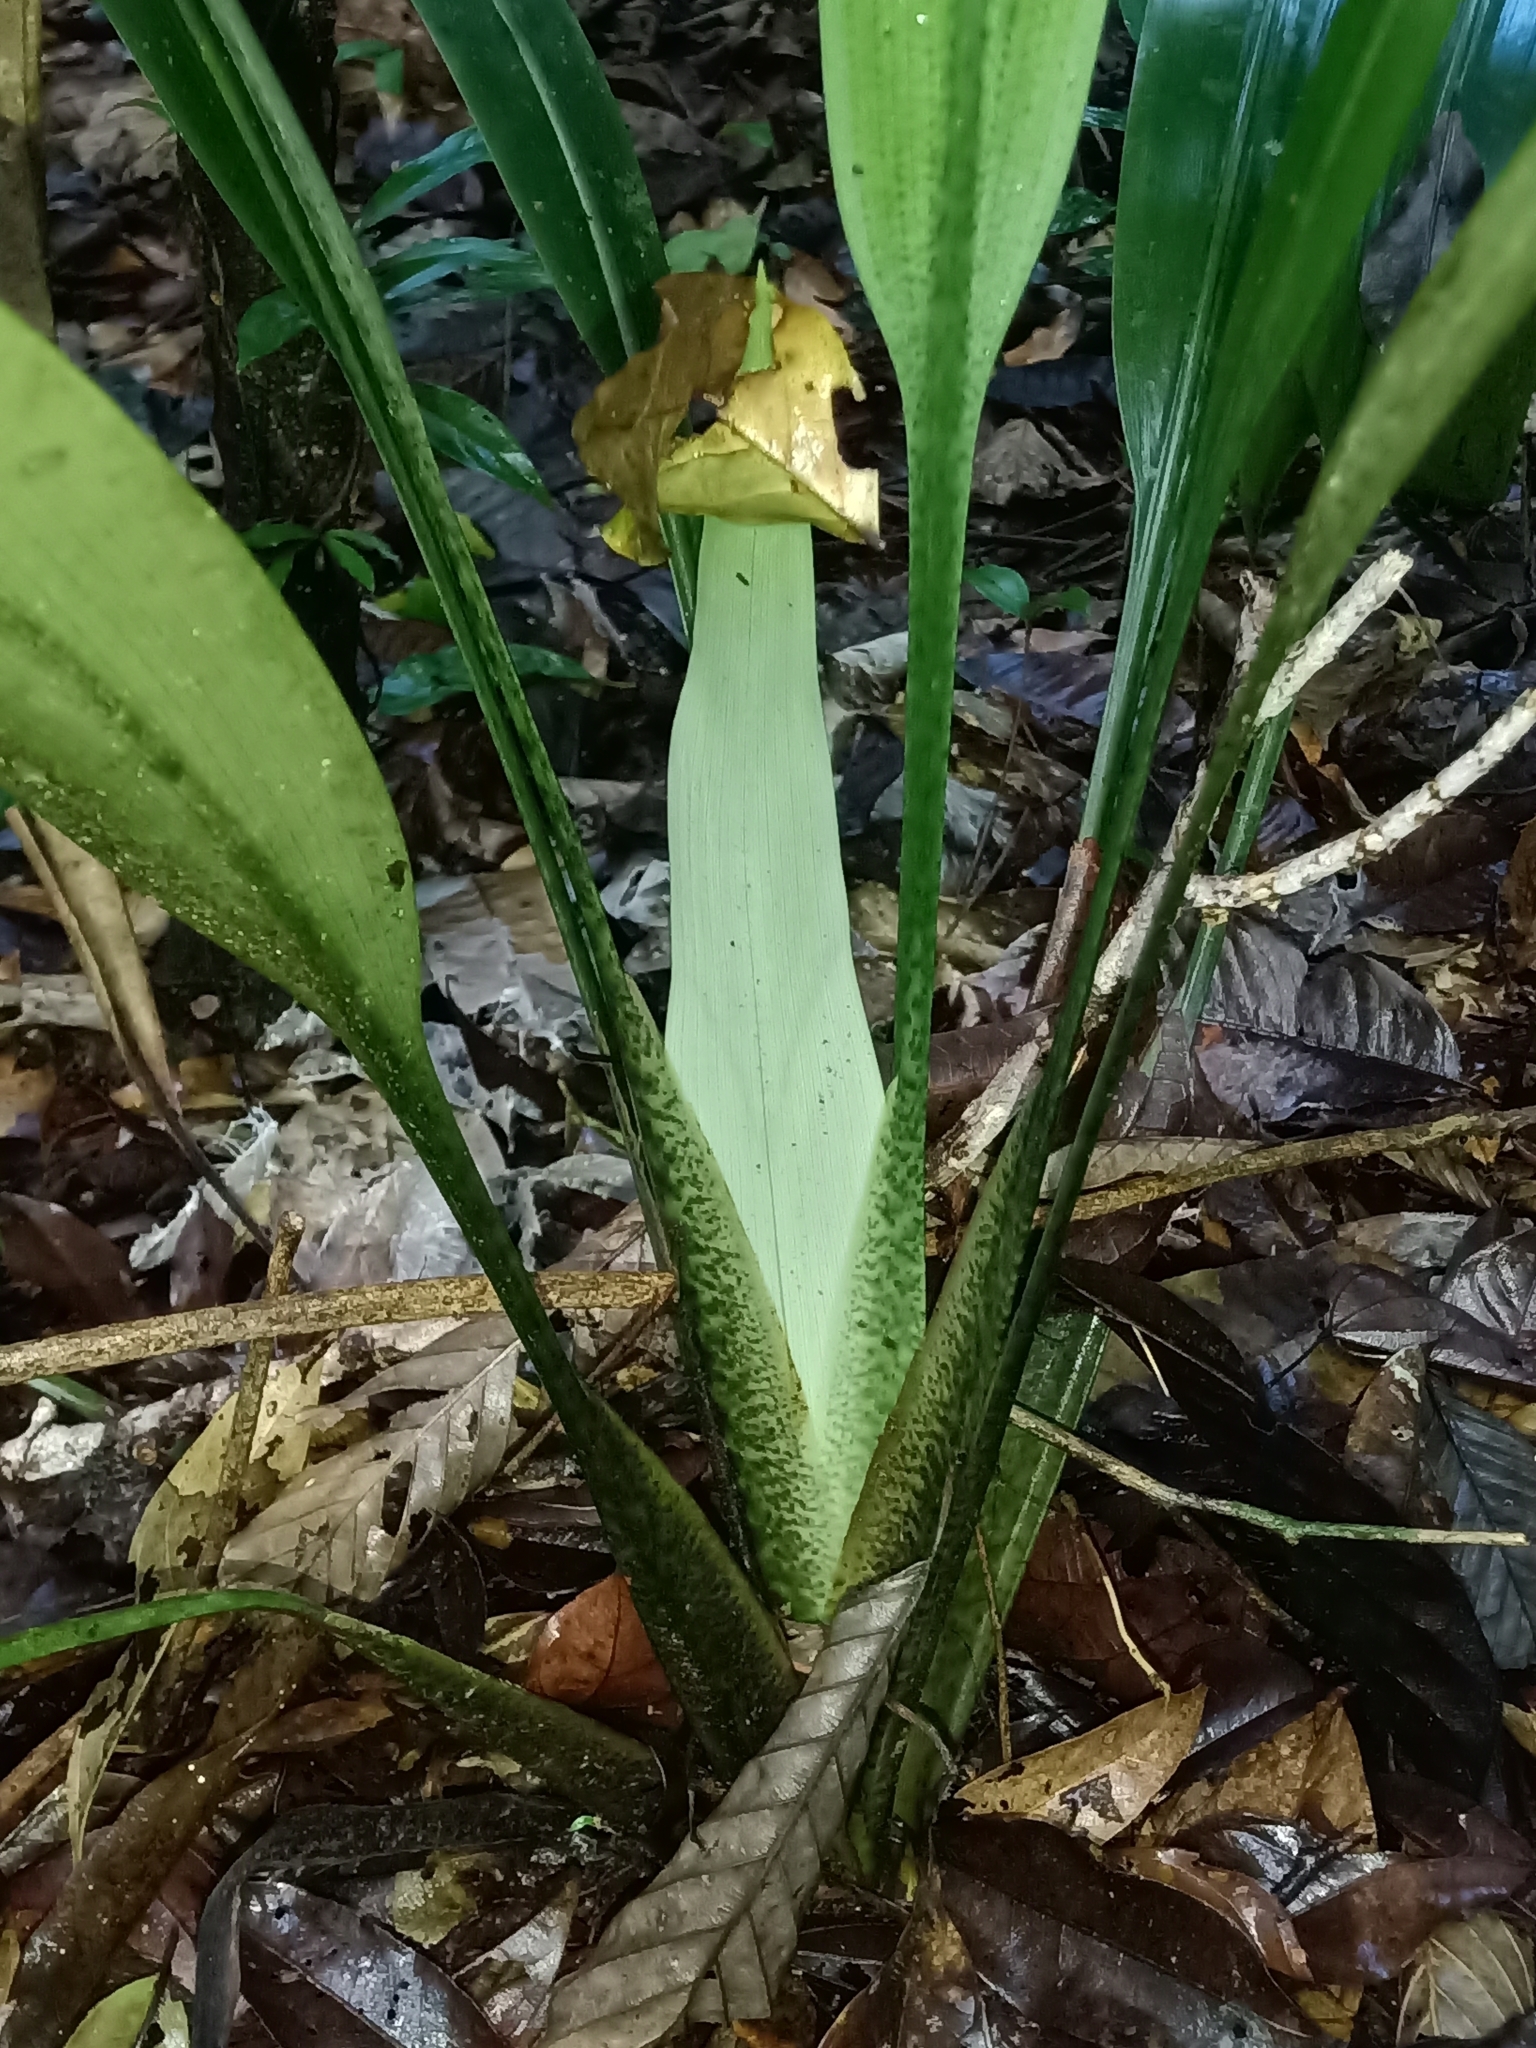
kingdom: Plantae
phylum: Tracheophyta
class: Liliopsida
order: Poales
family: Rapateaceae
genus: Spathanthus
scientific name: Spathanthus unilateralis
